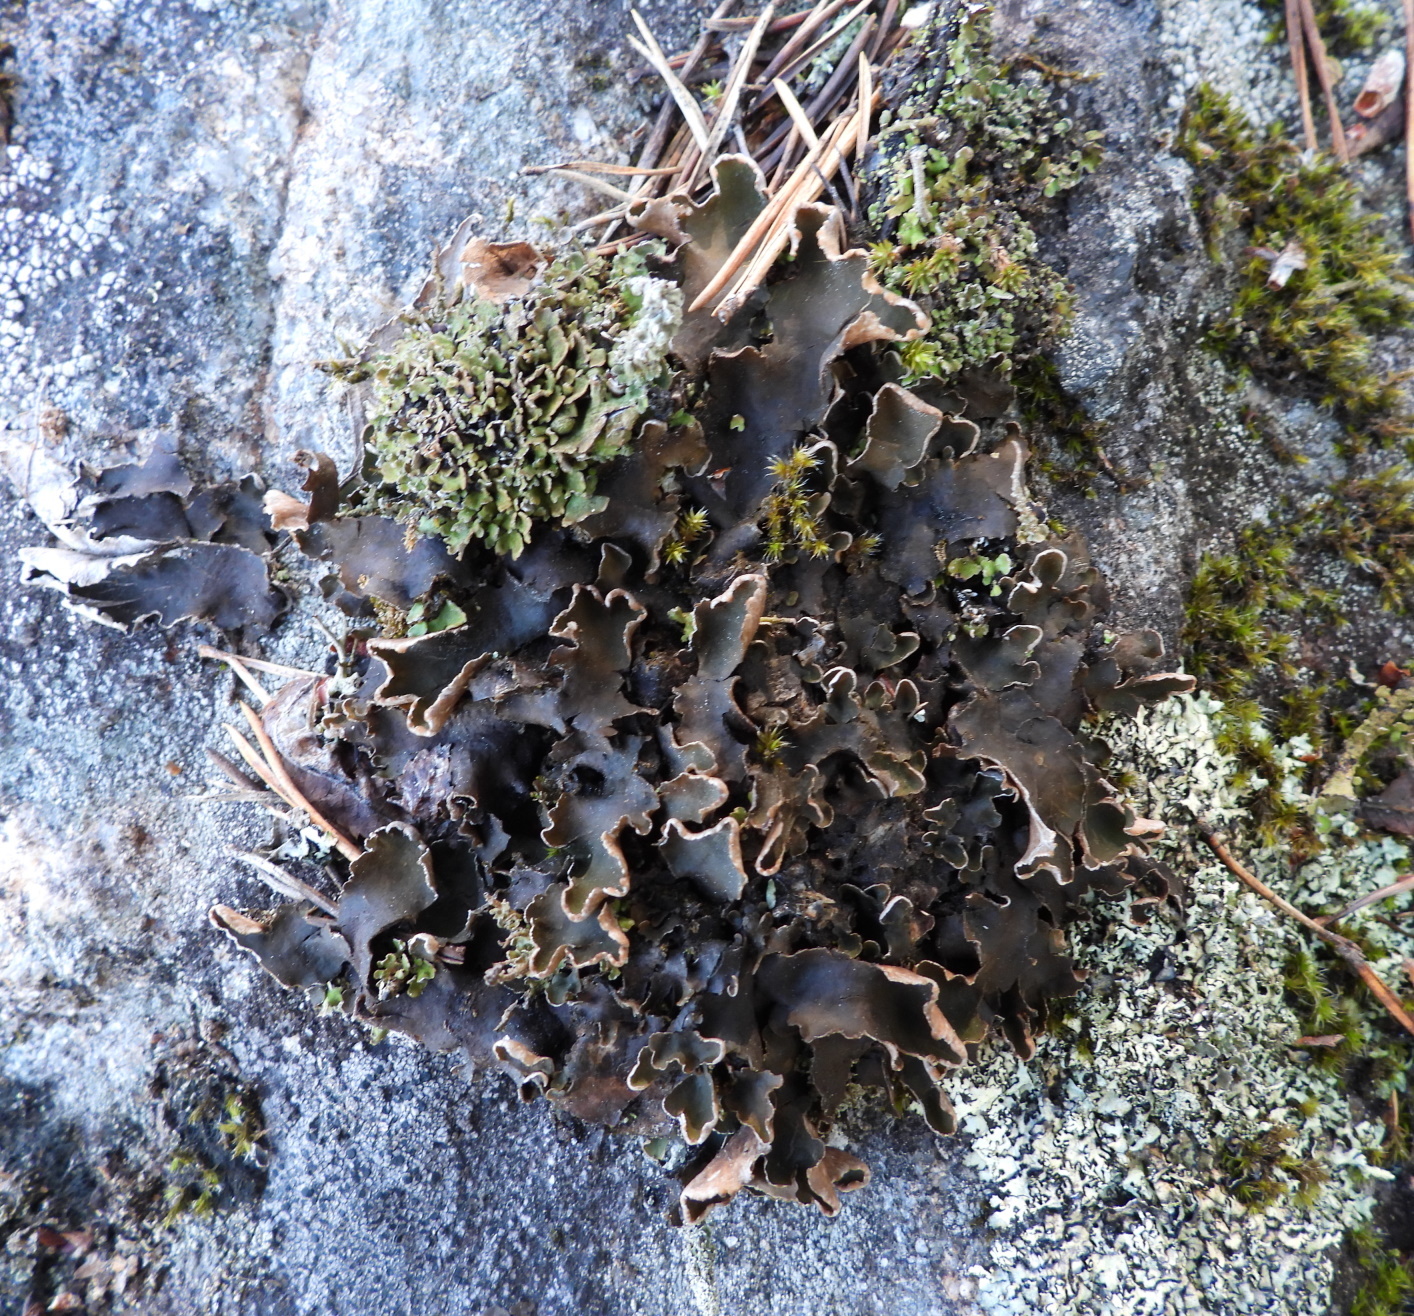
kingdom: Fungi
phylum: Ascomycota
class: Lecanoromycetes
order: Peltigerales
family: Peltigeraceae
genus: Peltigera
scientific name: Peltigera neopolydactyla
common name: Carpet pelt
